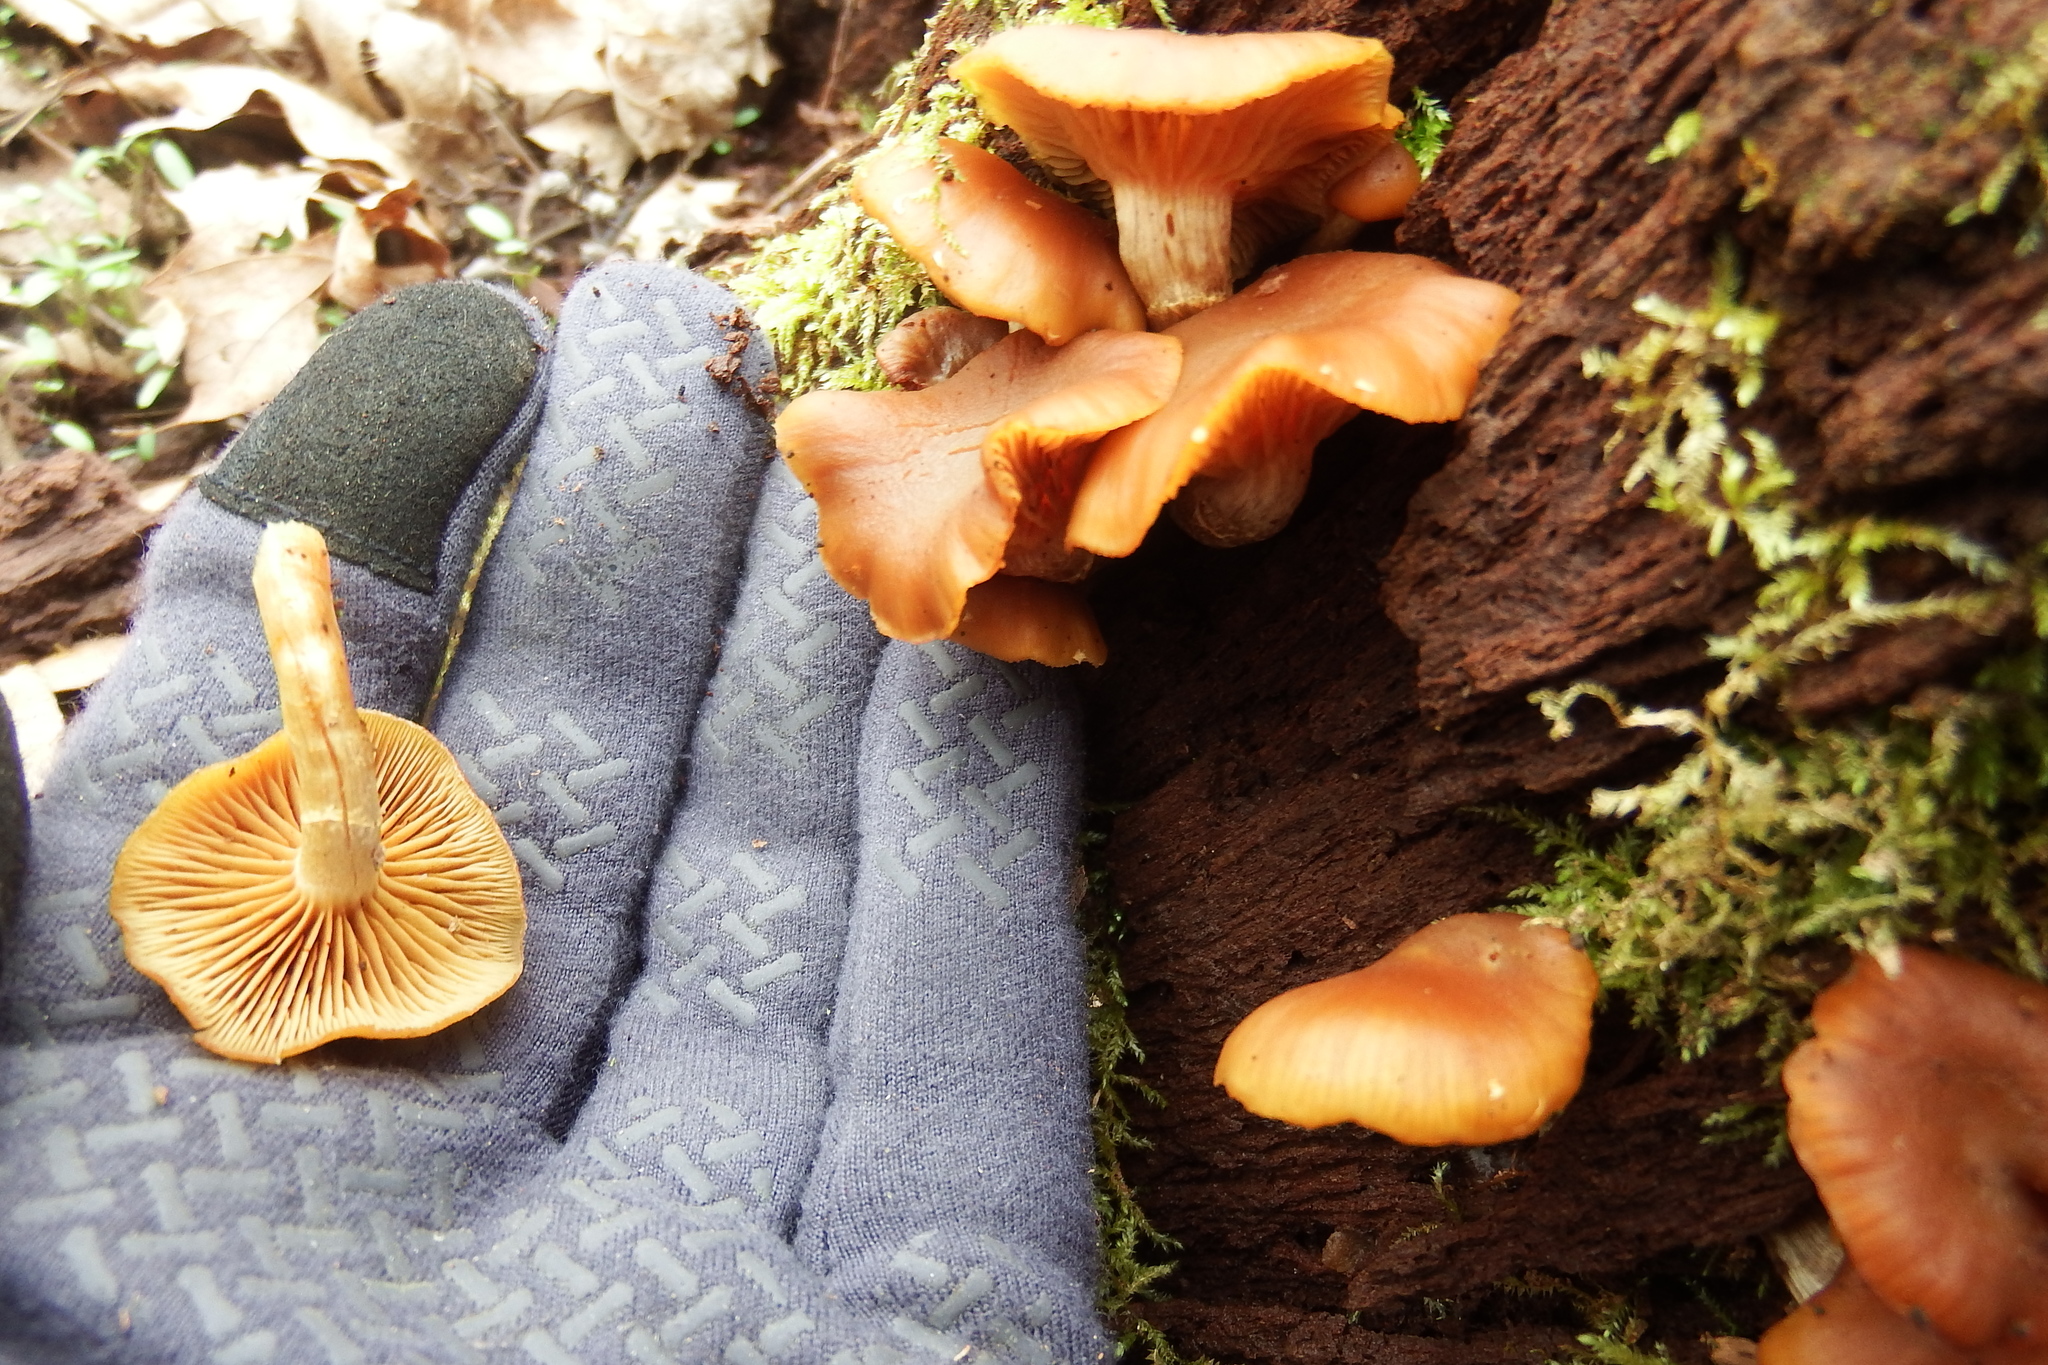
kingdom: Fungi
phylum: Basidiomycota
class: Agaricomycetes
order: Agaricales
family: Hymenogastraceae
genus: Galerina
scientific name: Galerina marginata
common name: Funeral bell
